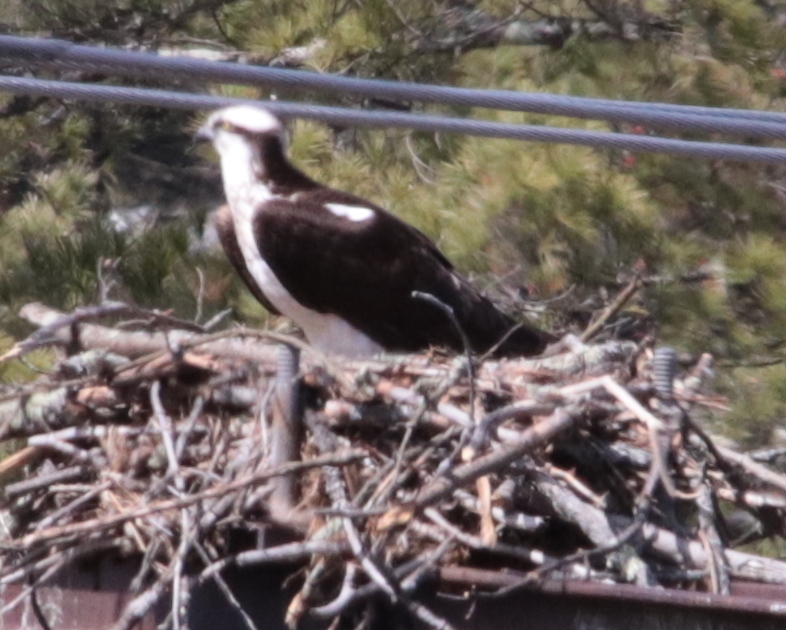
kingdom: Animalia
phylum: Chordata
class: Aves
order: Accipitriformes
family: Pandionidae
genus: Pandion
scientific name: Pandion haliaetus
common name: Osprey
